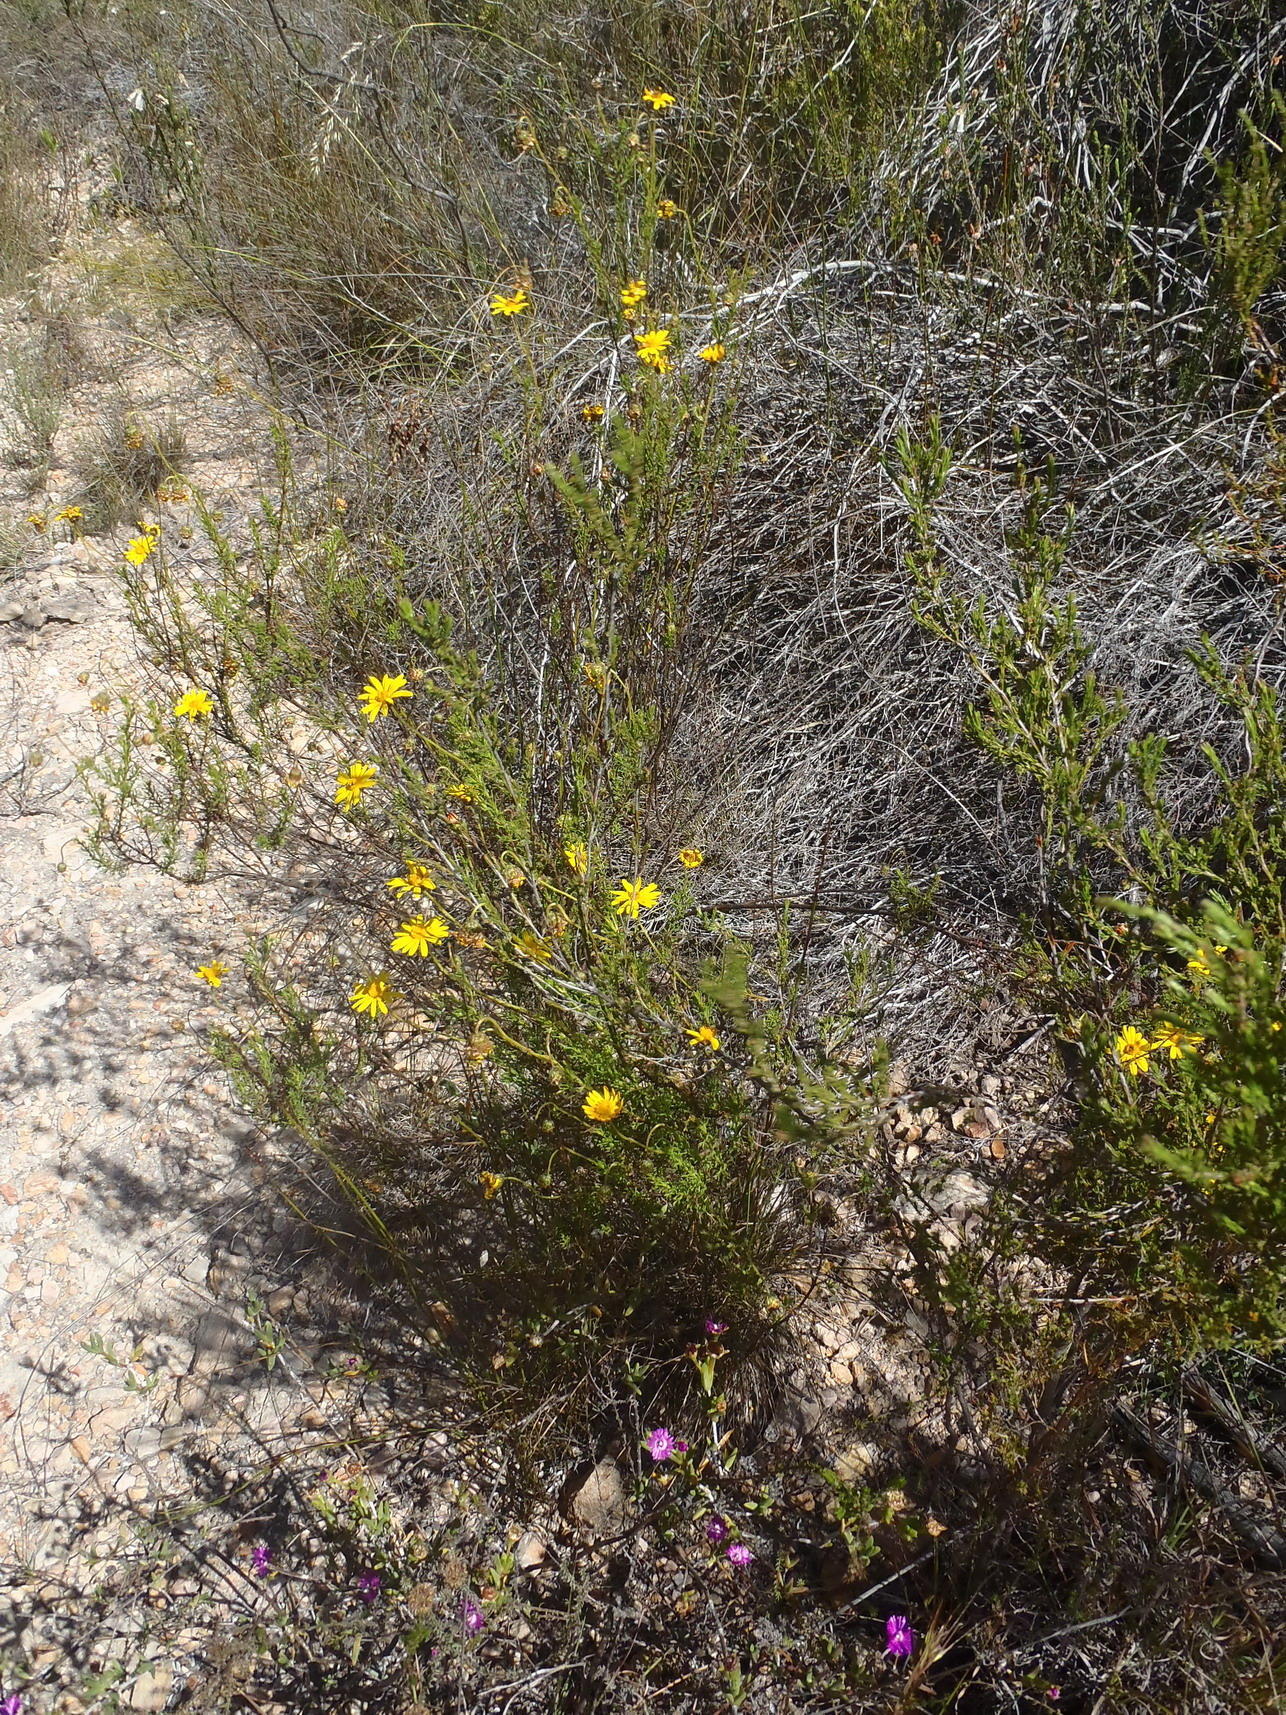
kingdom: Plantae
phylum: Tracheophyta
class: Magnoliopsida
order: Asterales
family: Asteraceae
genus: Ursinia
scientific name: Ursinia trifida
